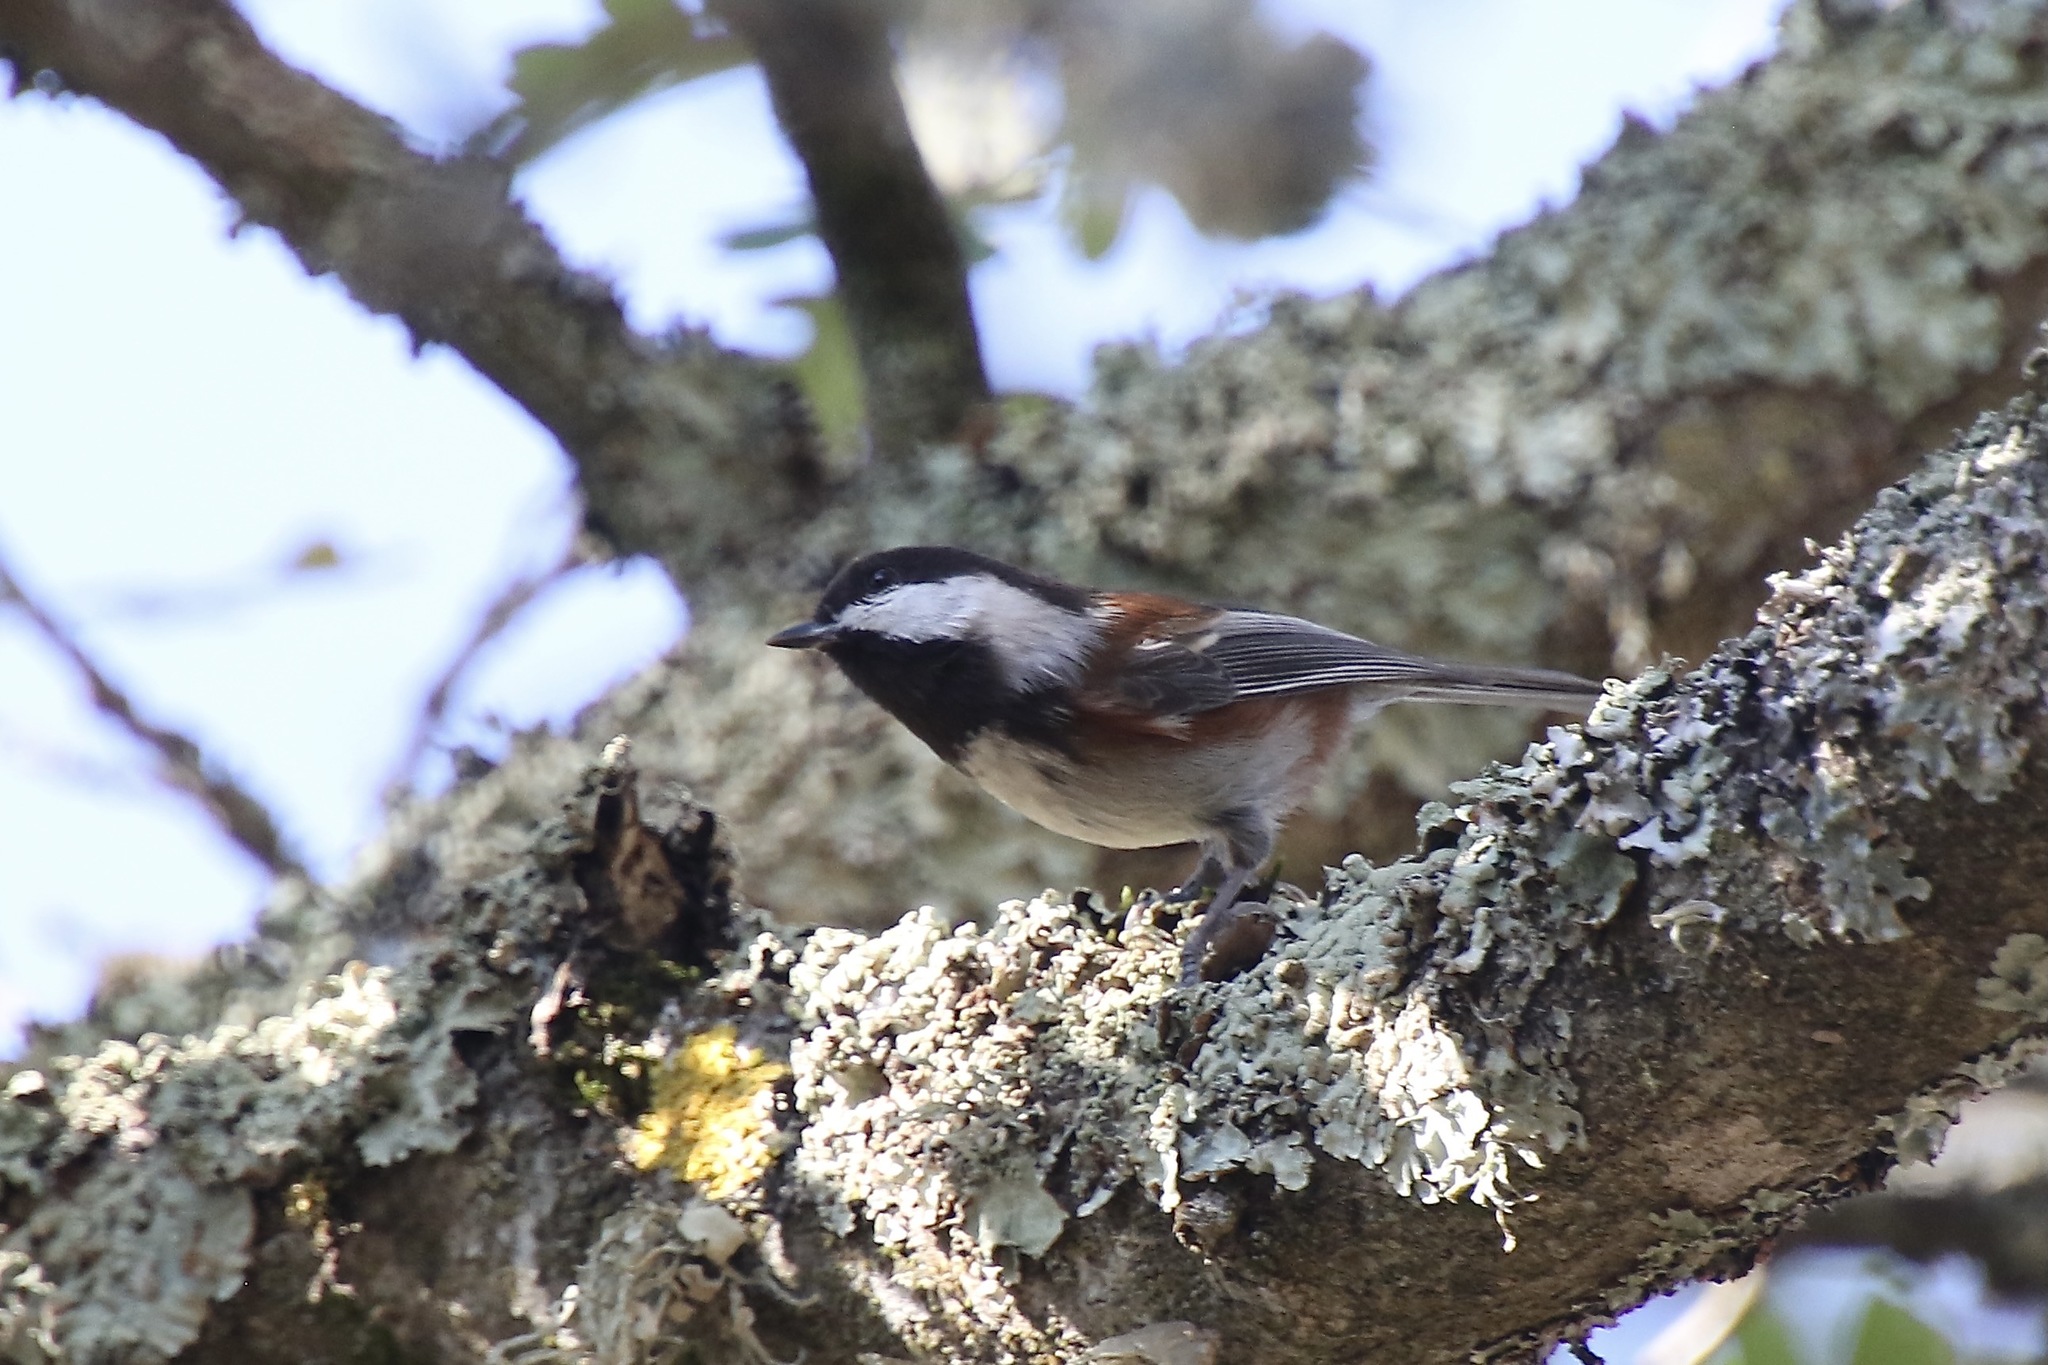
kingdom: Animalia
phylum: Chordata
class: Aves
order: Passeriformes
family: Paridae
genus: Poecile
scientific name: Poecile rufescens
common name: Chestnut-backed chickadee
